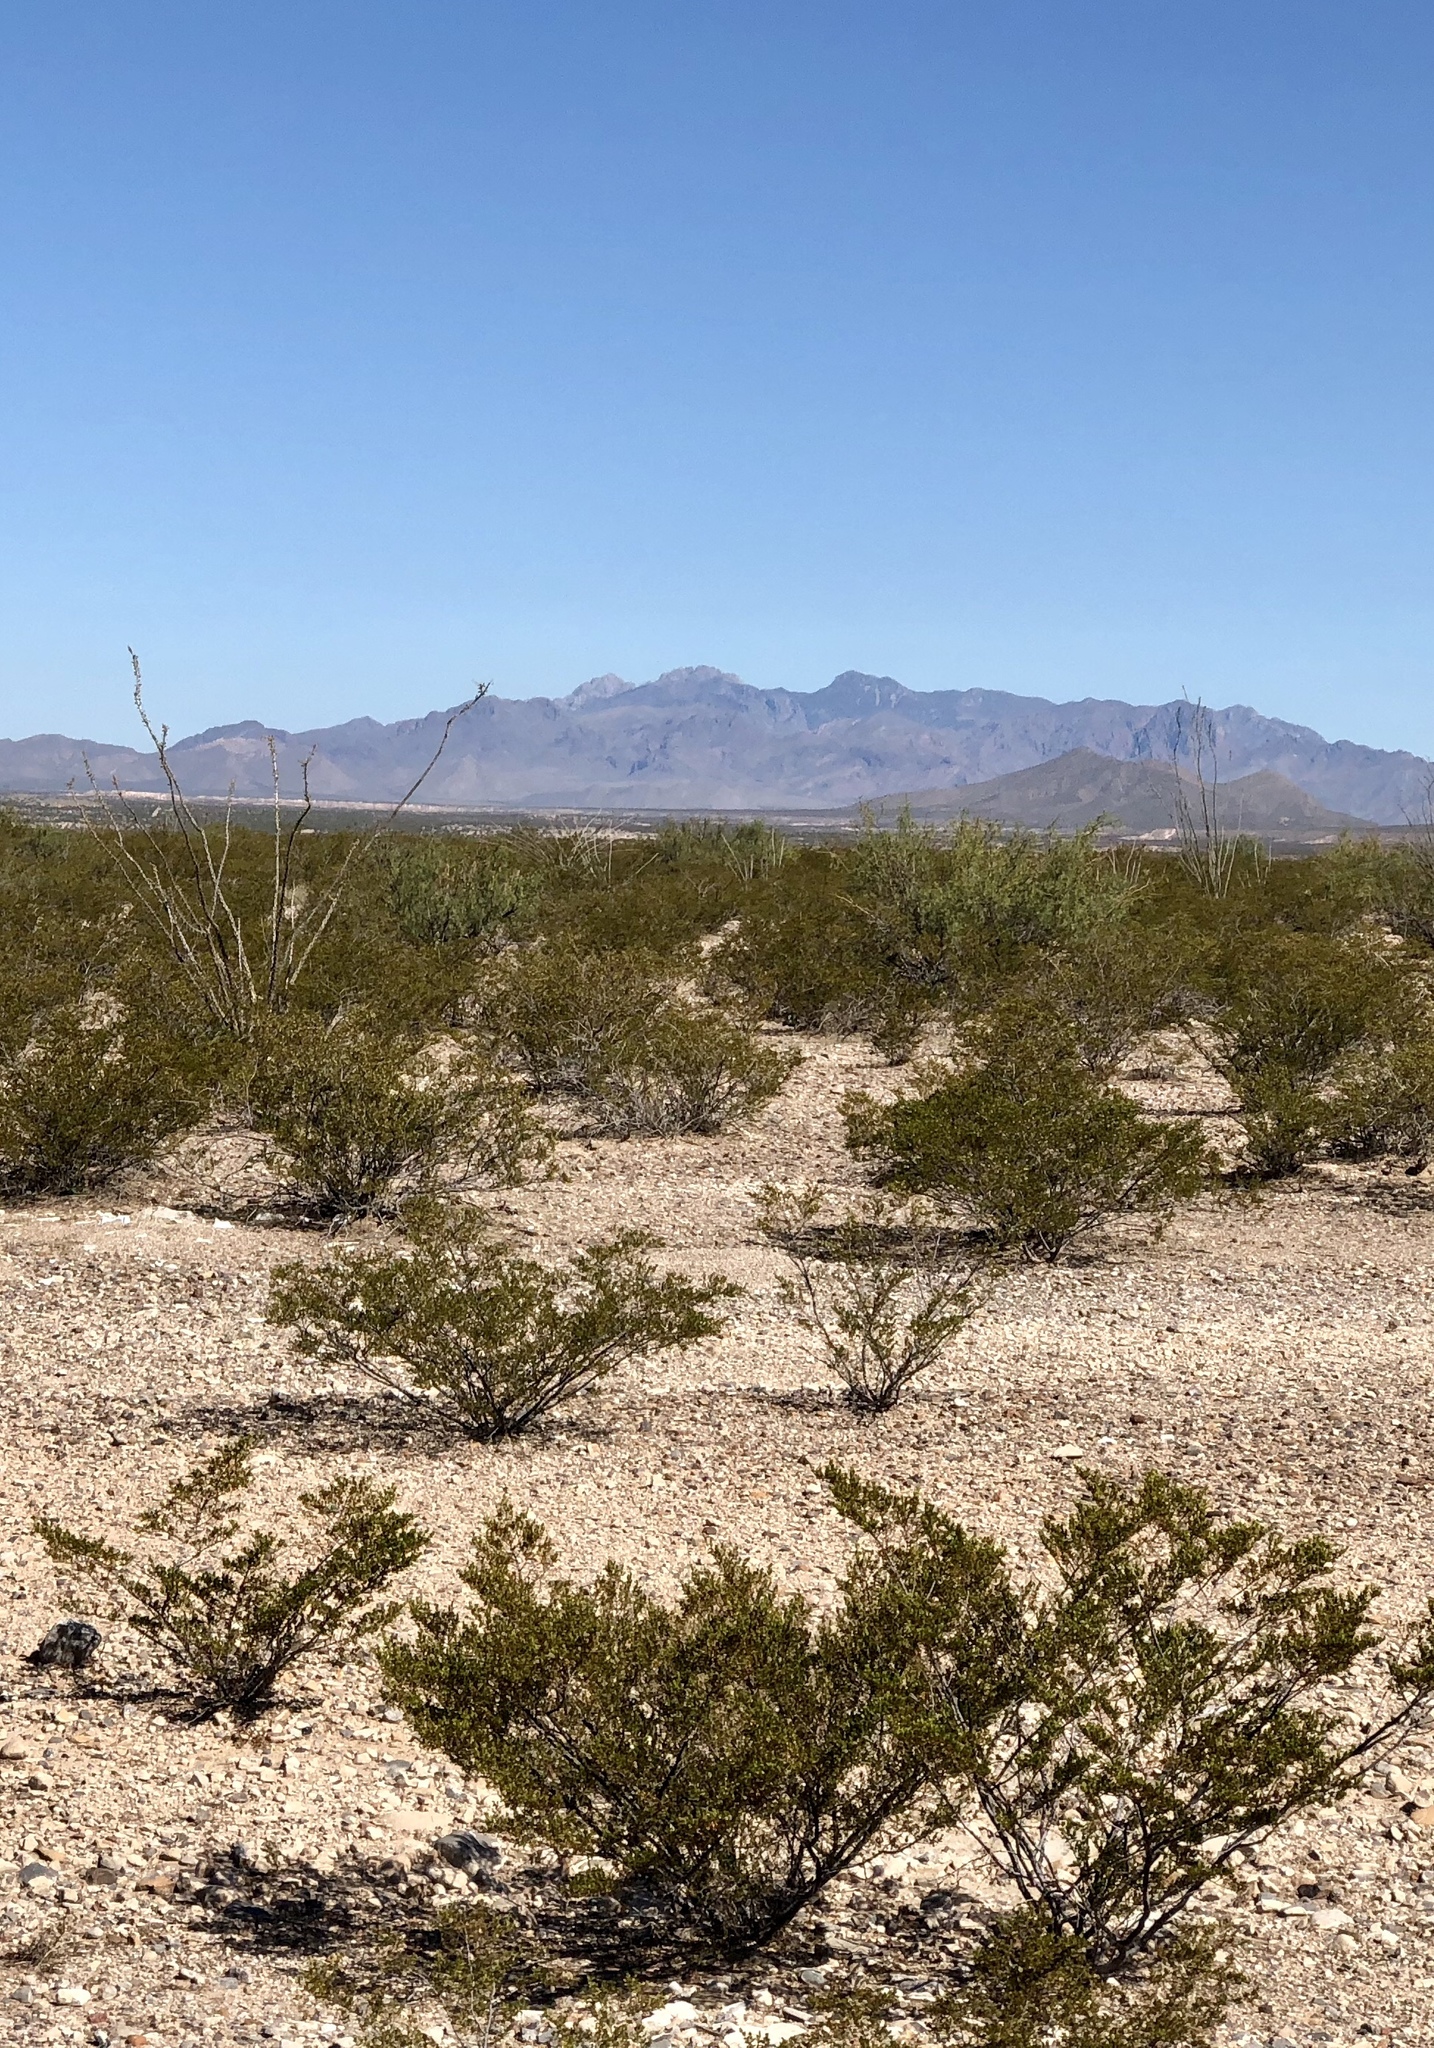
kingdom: Plantae
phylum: Tracheophyta
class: Magnoliopsida
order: Zygophyllales
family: Zygophyllaceae
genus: Larrea
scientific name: Larrea tridentata
